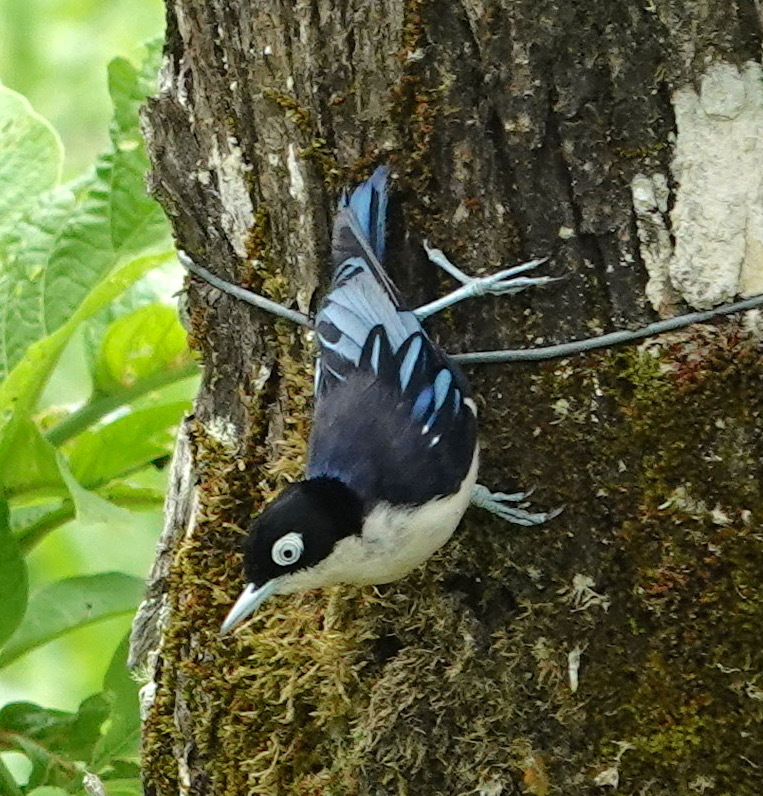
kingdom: Animalia
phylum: Chordata
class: Aves
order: Passeriformes
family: Sittidae
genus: Sitta
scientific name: Sitta azurea
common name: Blue nuthatch
